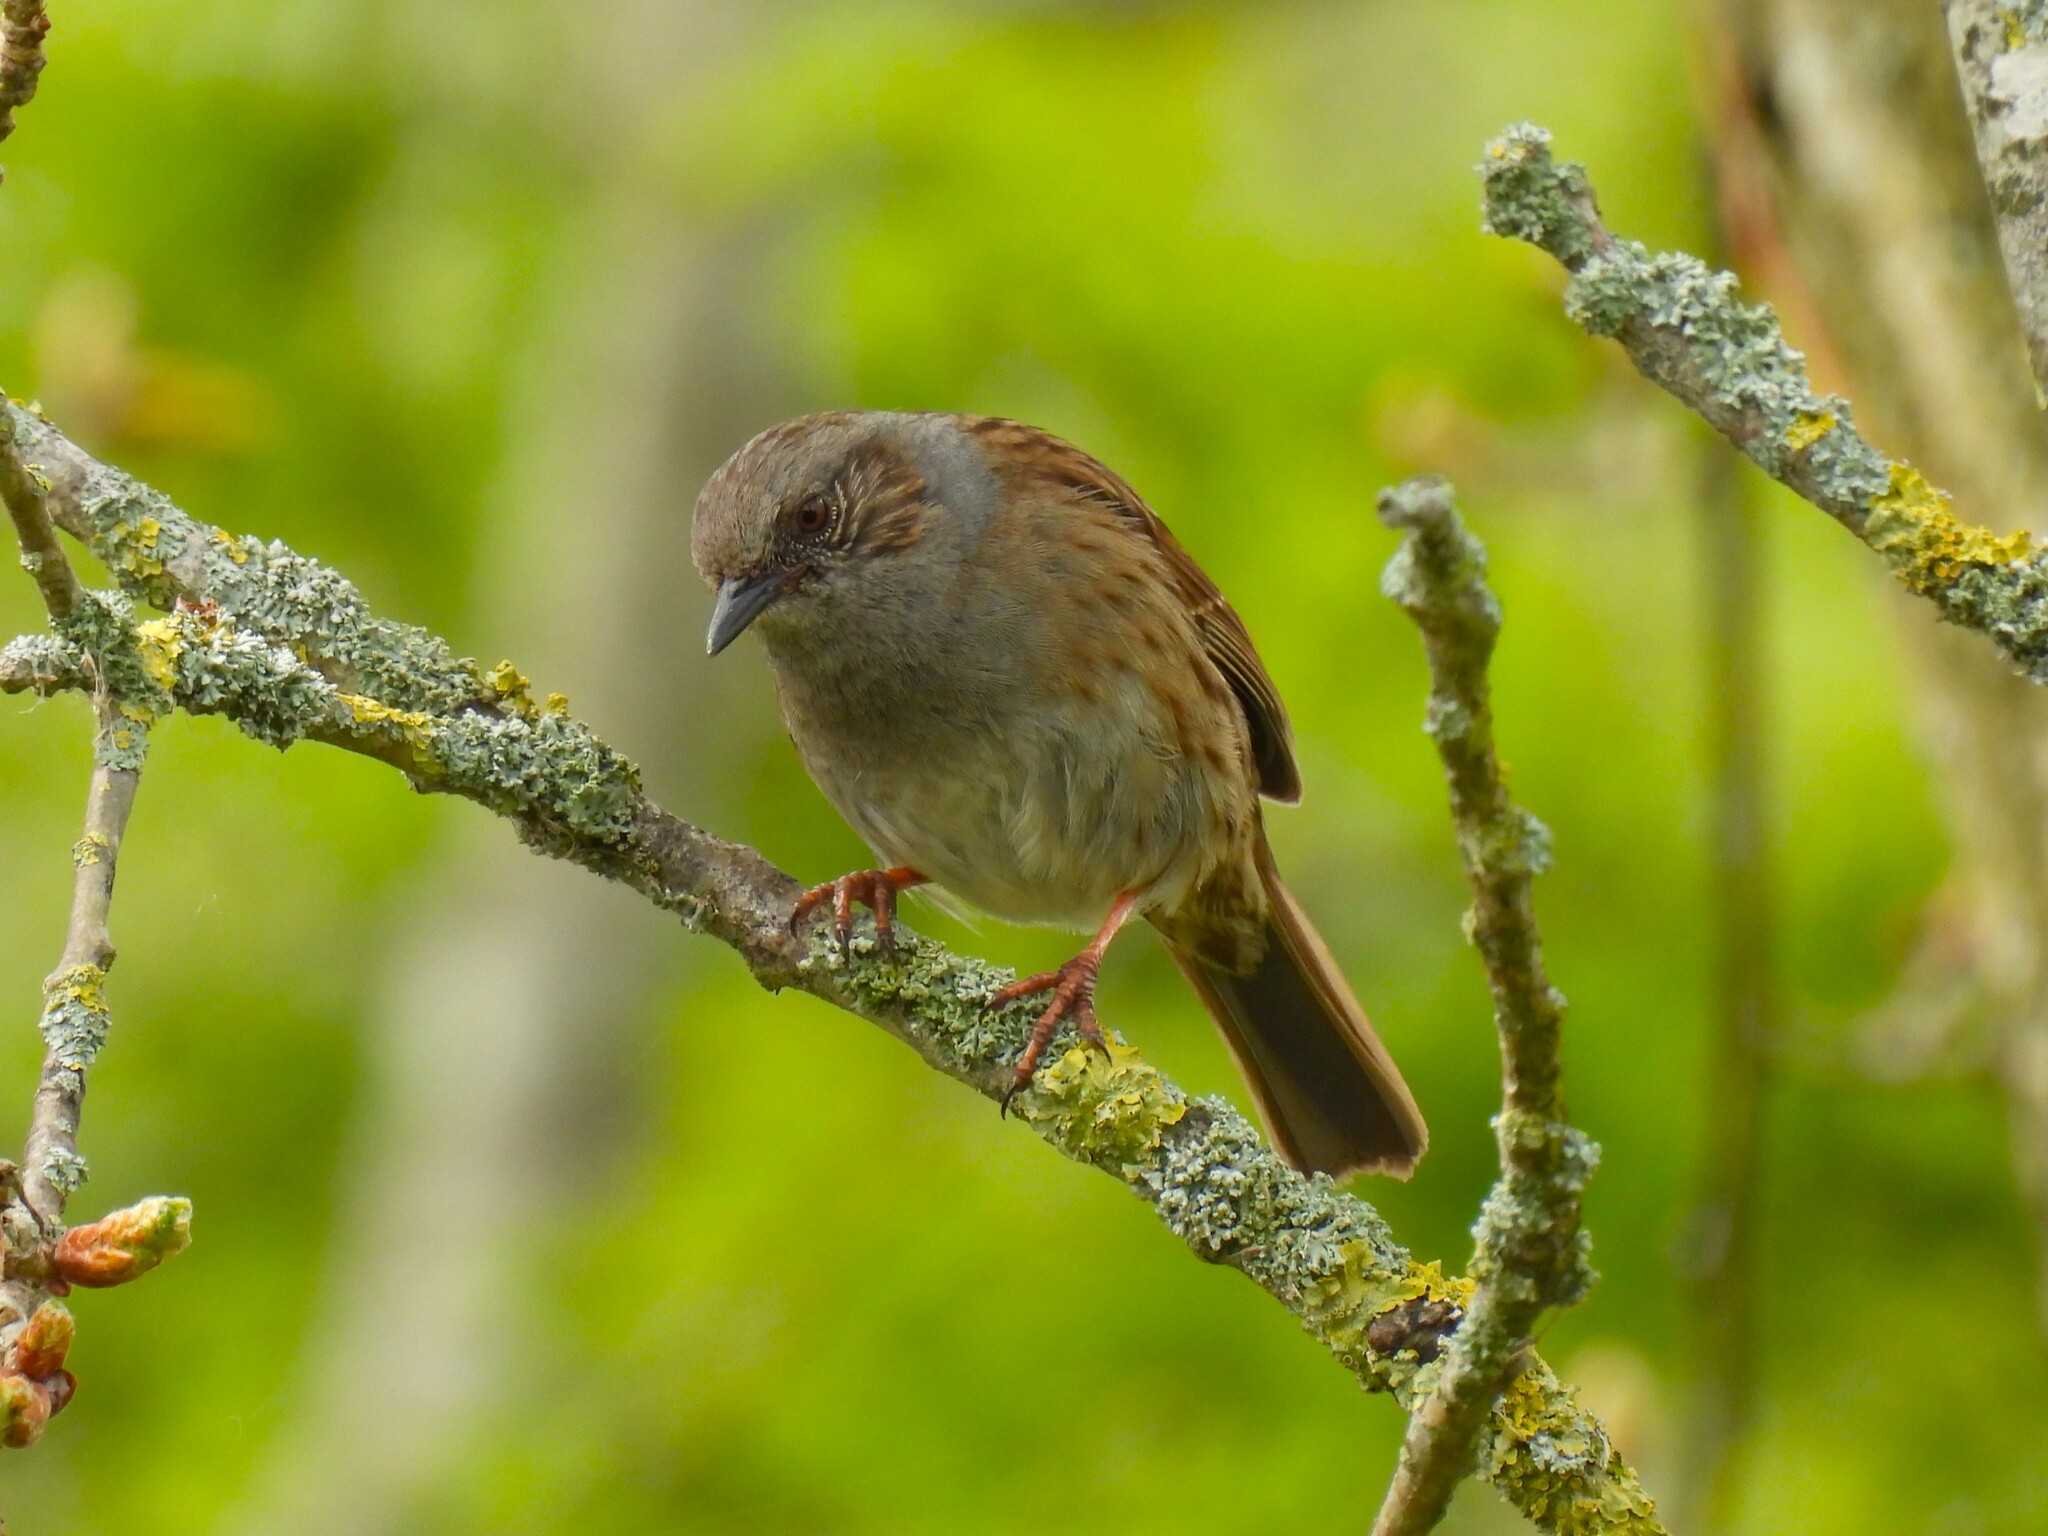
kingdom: Animalia
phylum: Chordata
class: Aves
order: Passeriformes
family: Prunellidae
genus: Prunella
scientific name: Prunella modularis
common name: Dunnock
